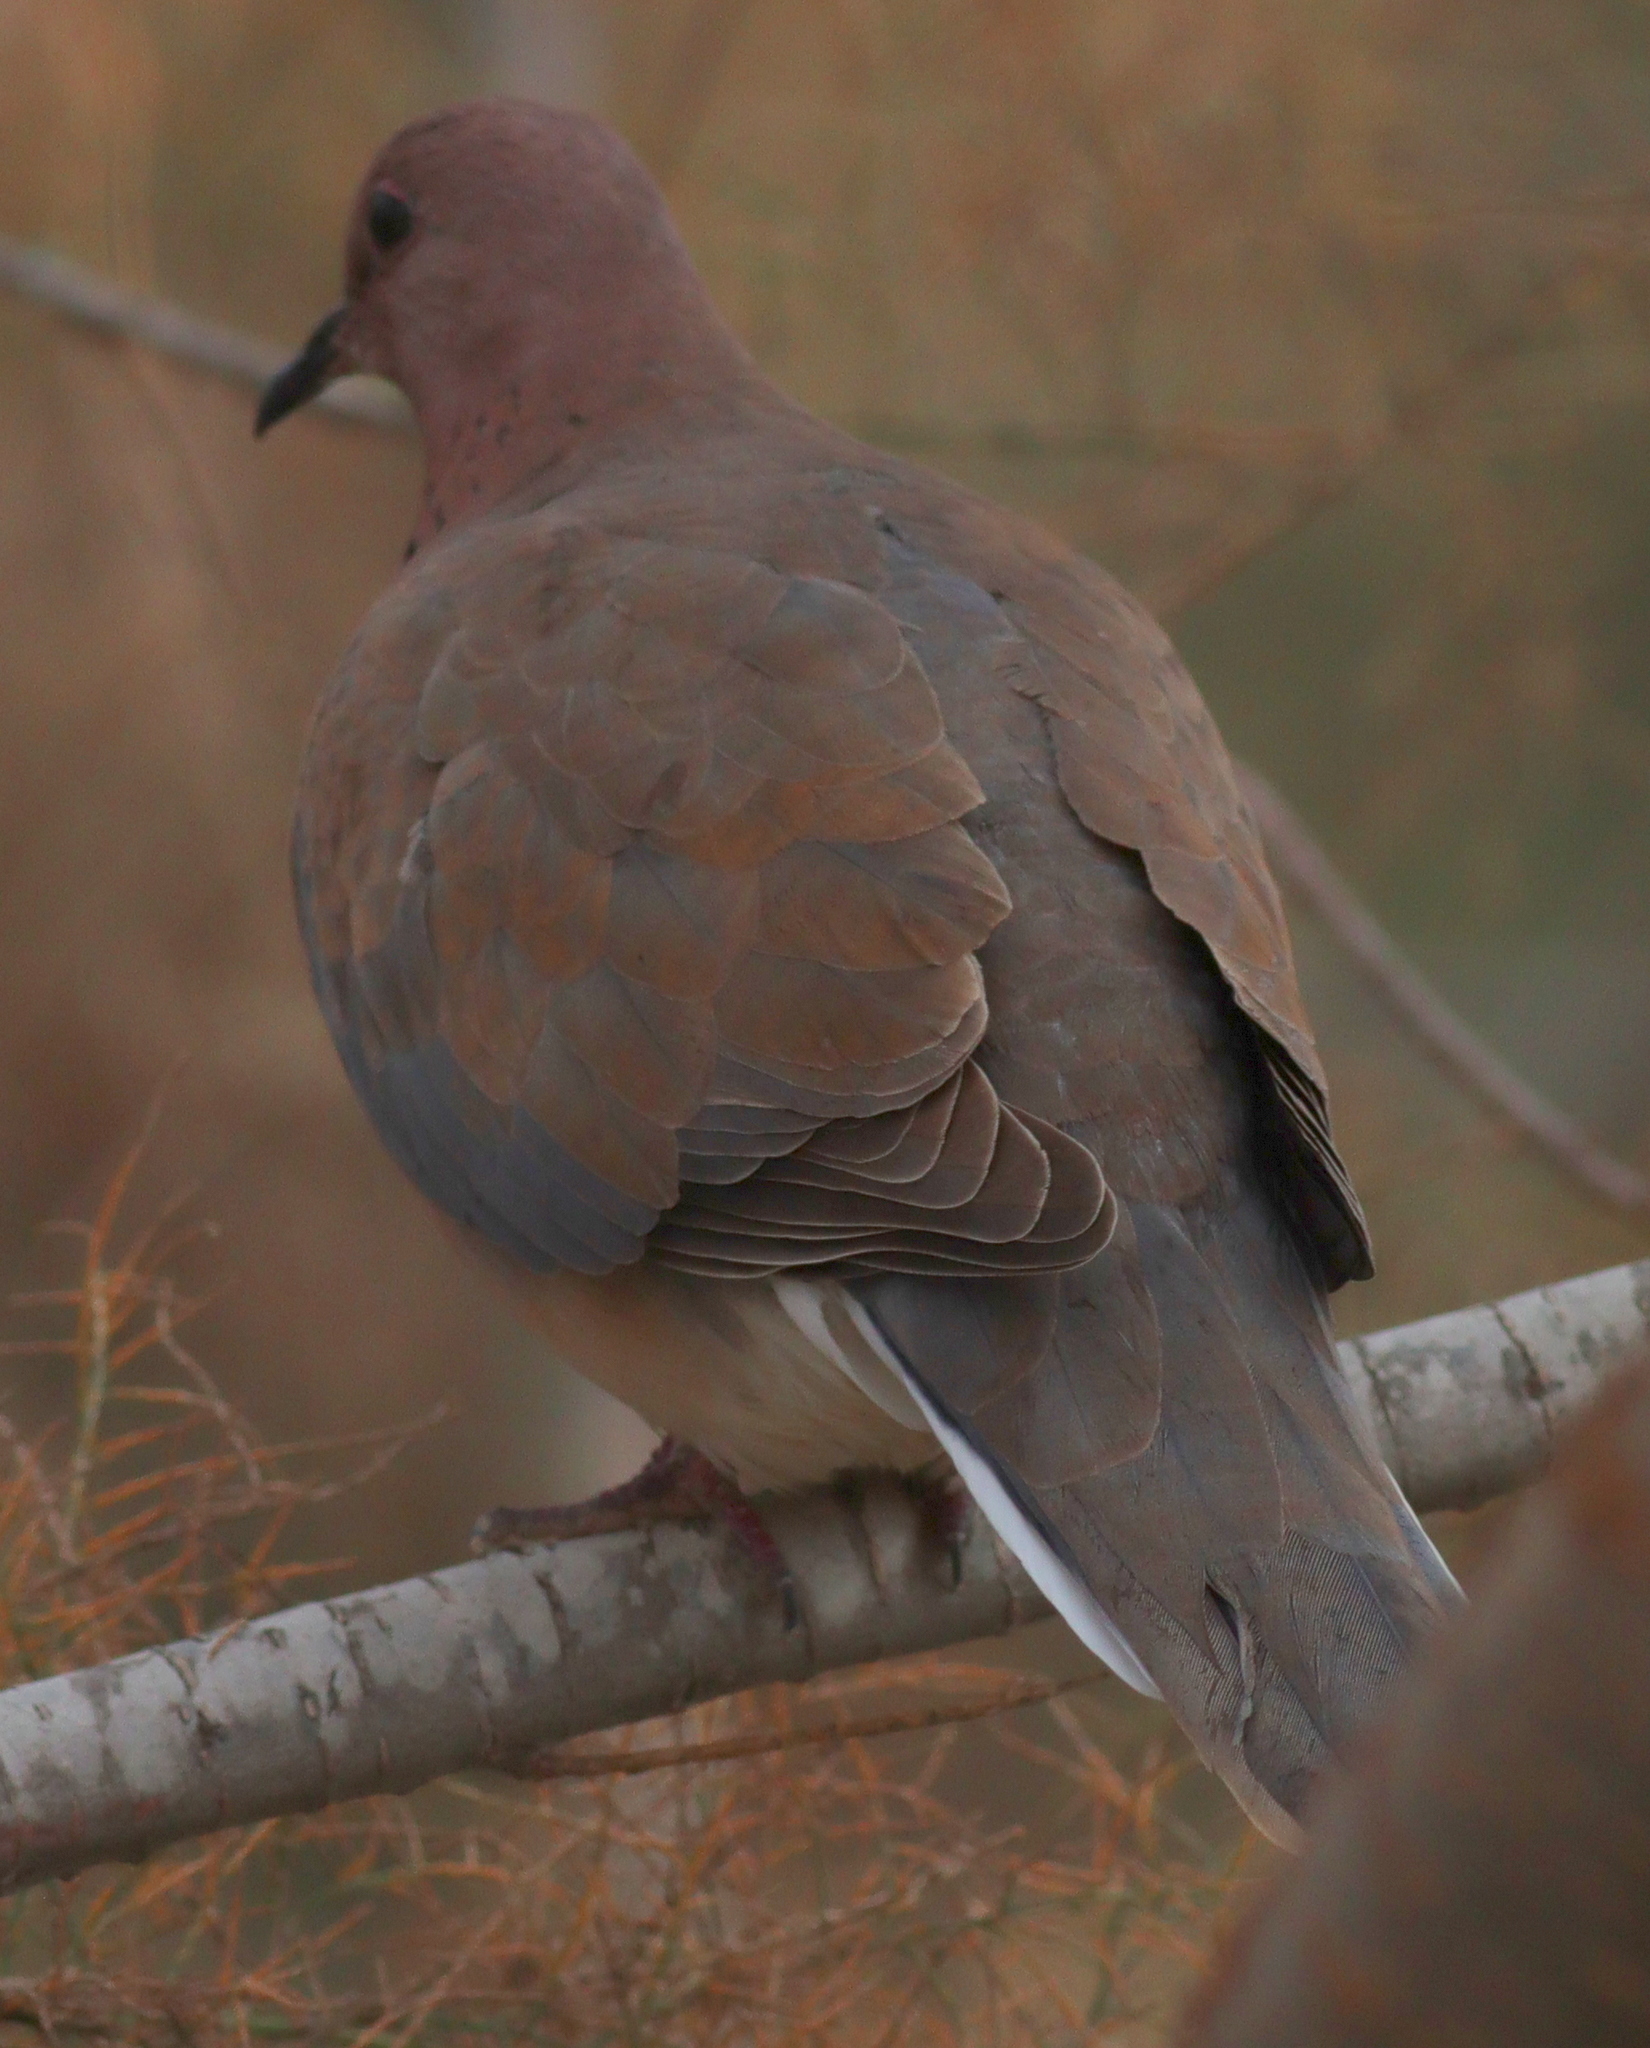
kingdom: Animalia
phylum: Chordata
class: Aves
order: Columbiformes
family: Columbidae
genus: Spilopelia
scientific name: Spilopelia senegalensis
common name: Laughing dove
